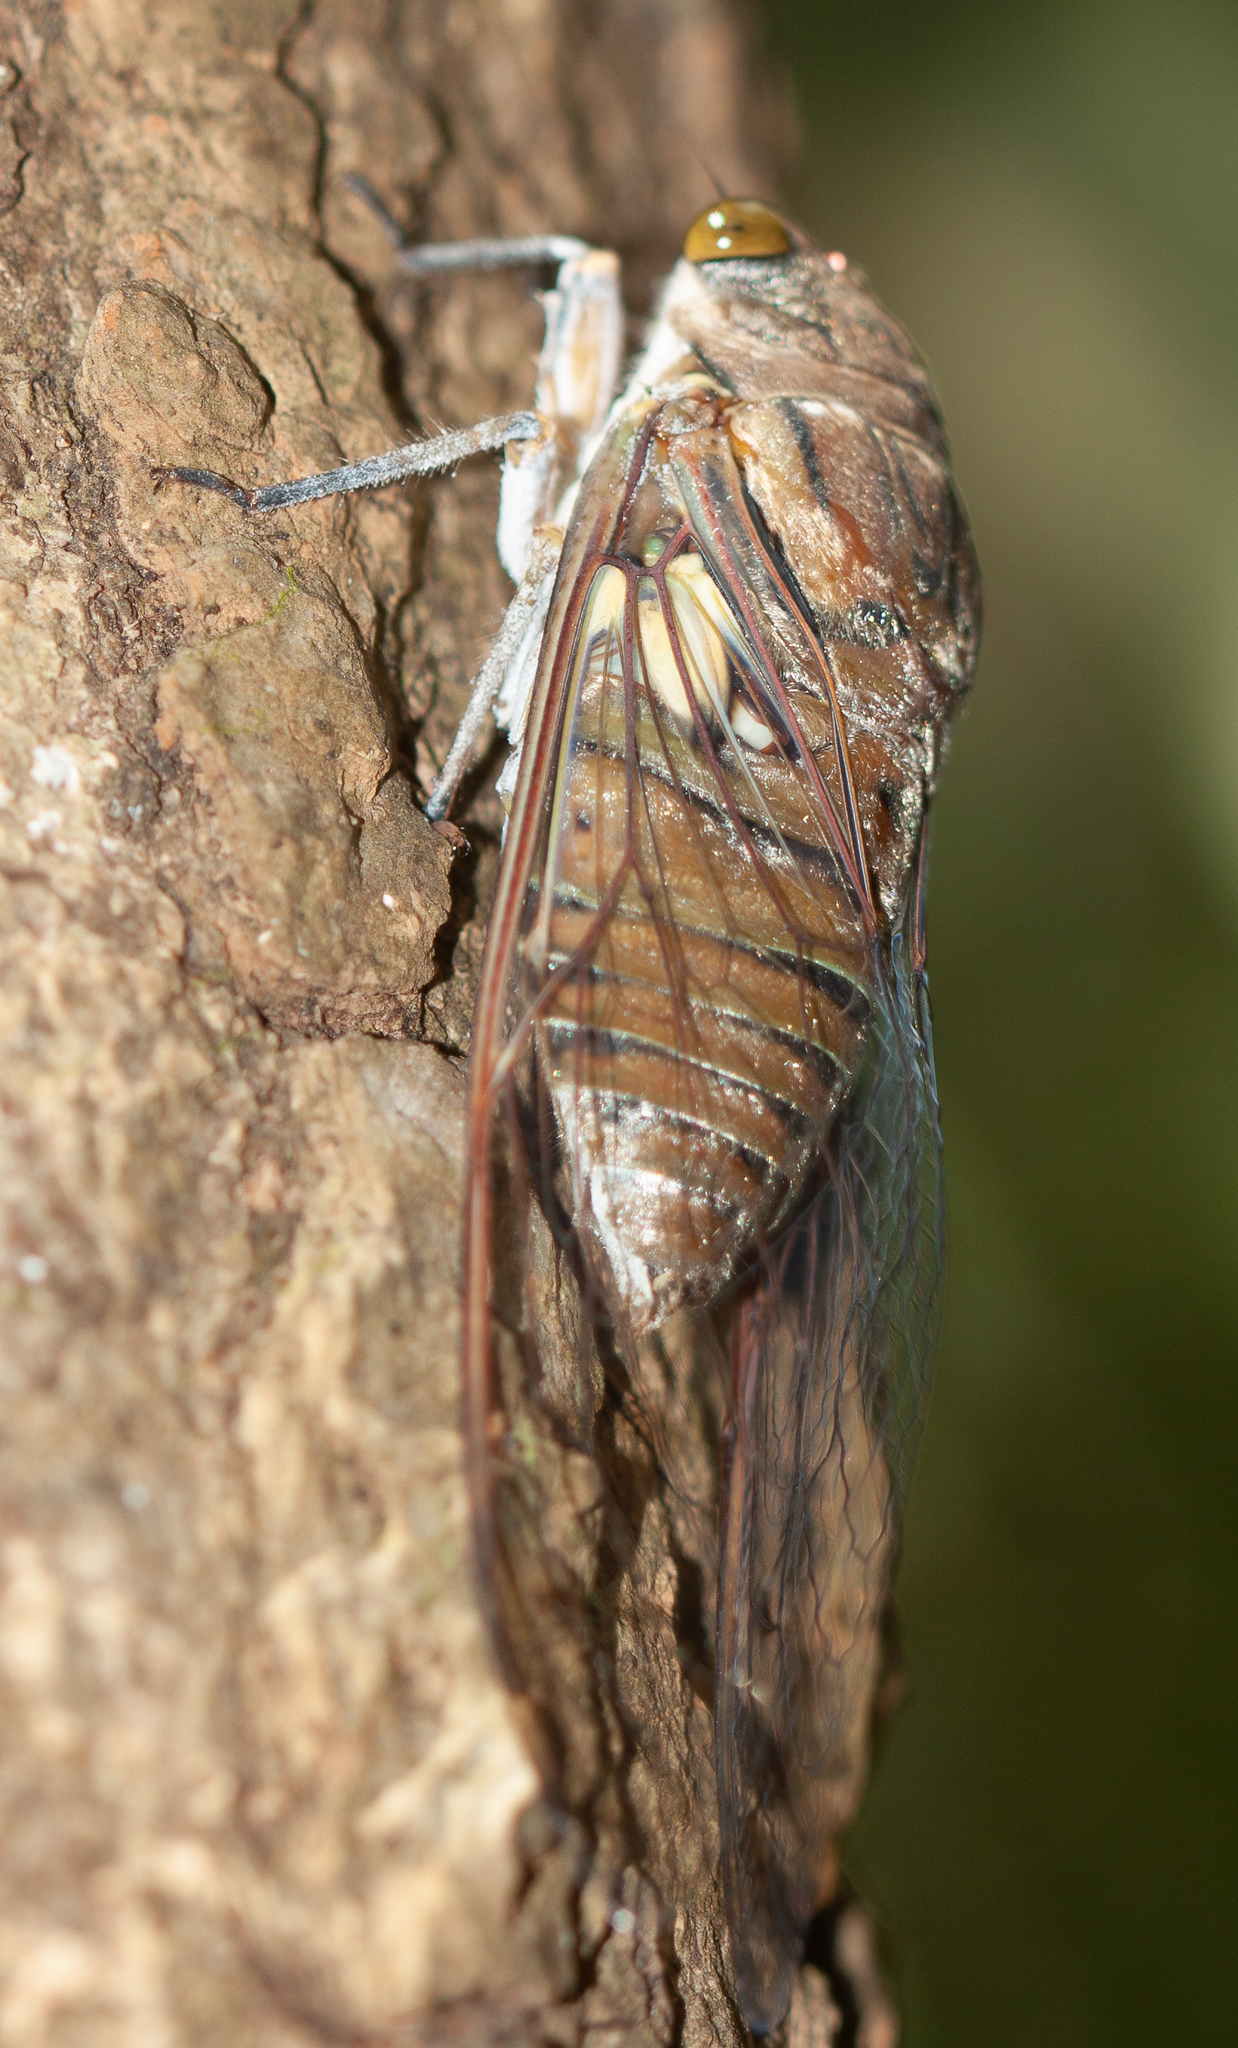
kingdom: Animalia
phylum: Arthropoda
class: Insecta
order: Hemiptera
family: Cicadidae
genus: Quesada
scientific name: Quesada gigas
